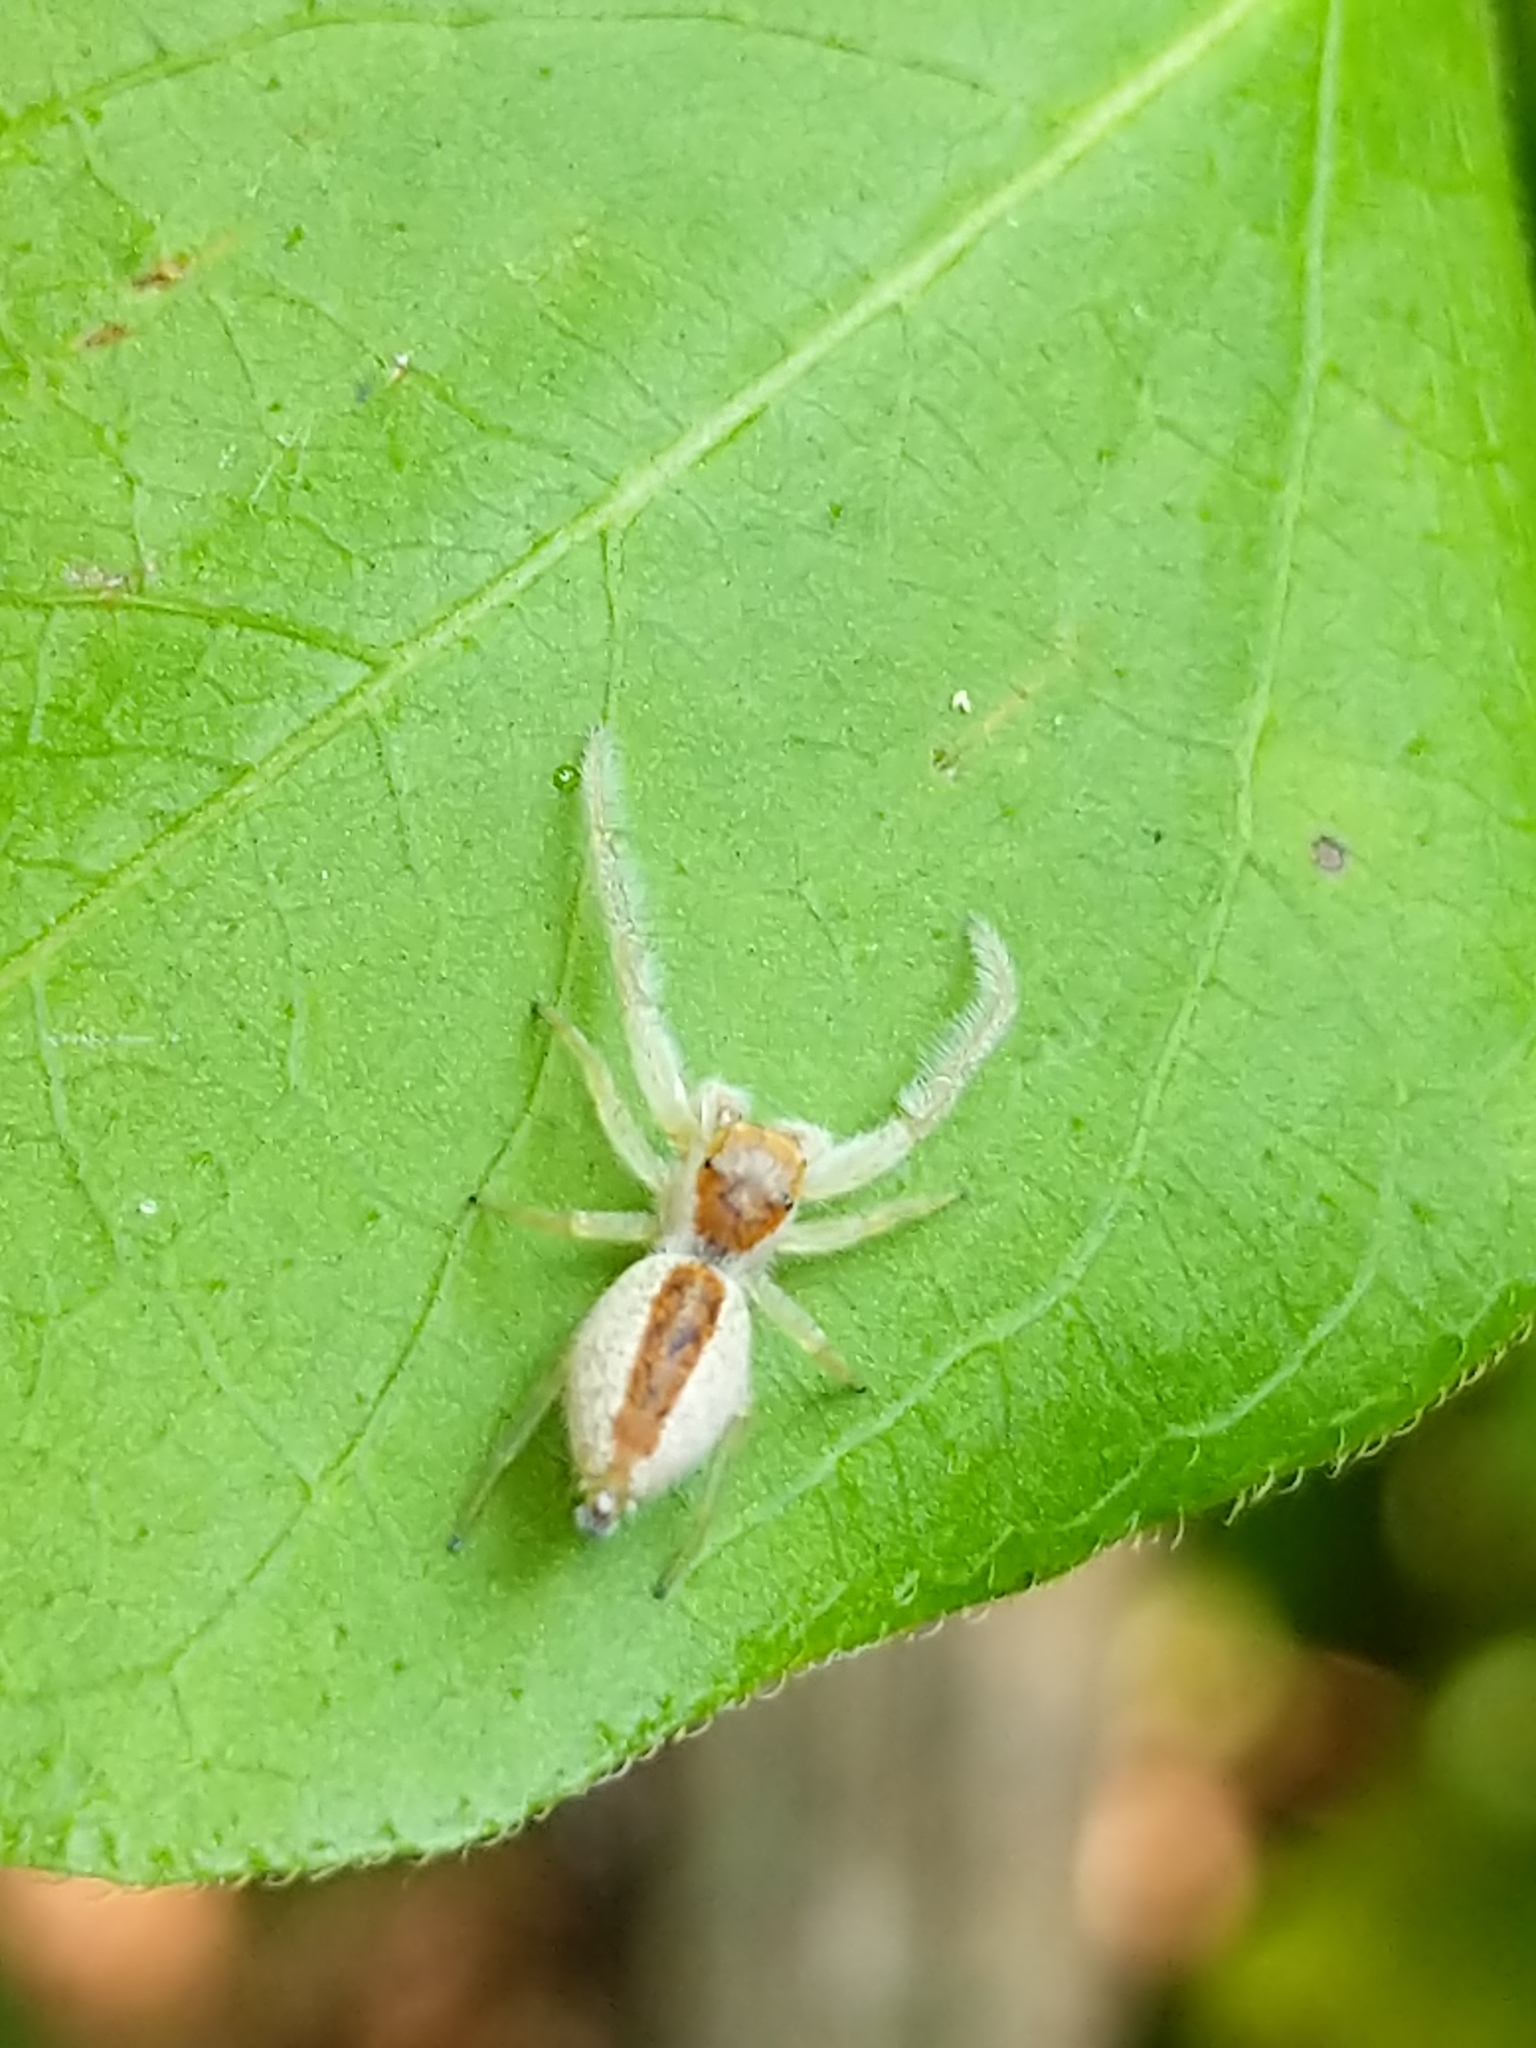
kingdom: Animalia
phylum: Arthropoda
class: Arachnida
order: Araneae
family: Salticidae
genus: Hentzia
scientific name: Hentzia mitrata
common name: White-jawed jumping spider
